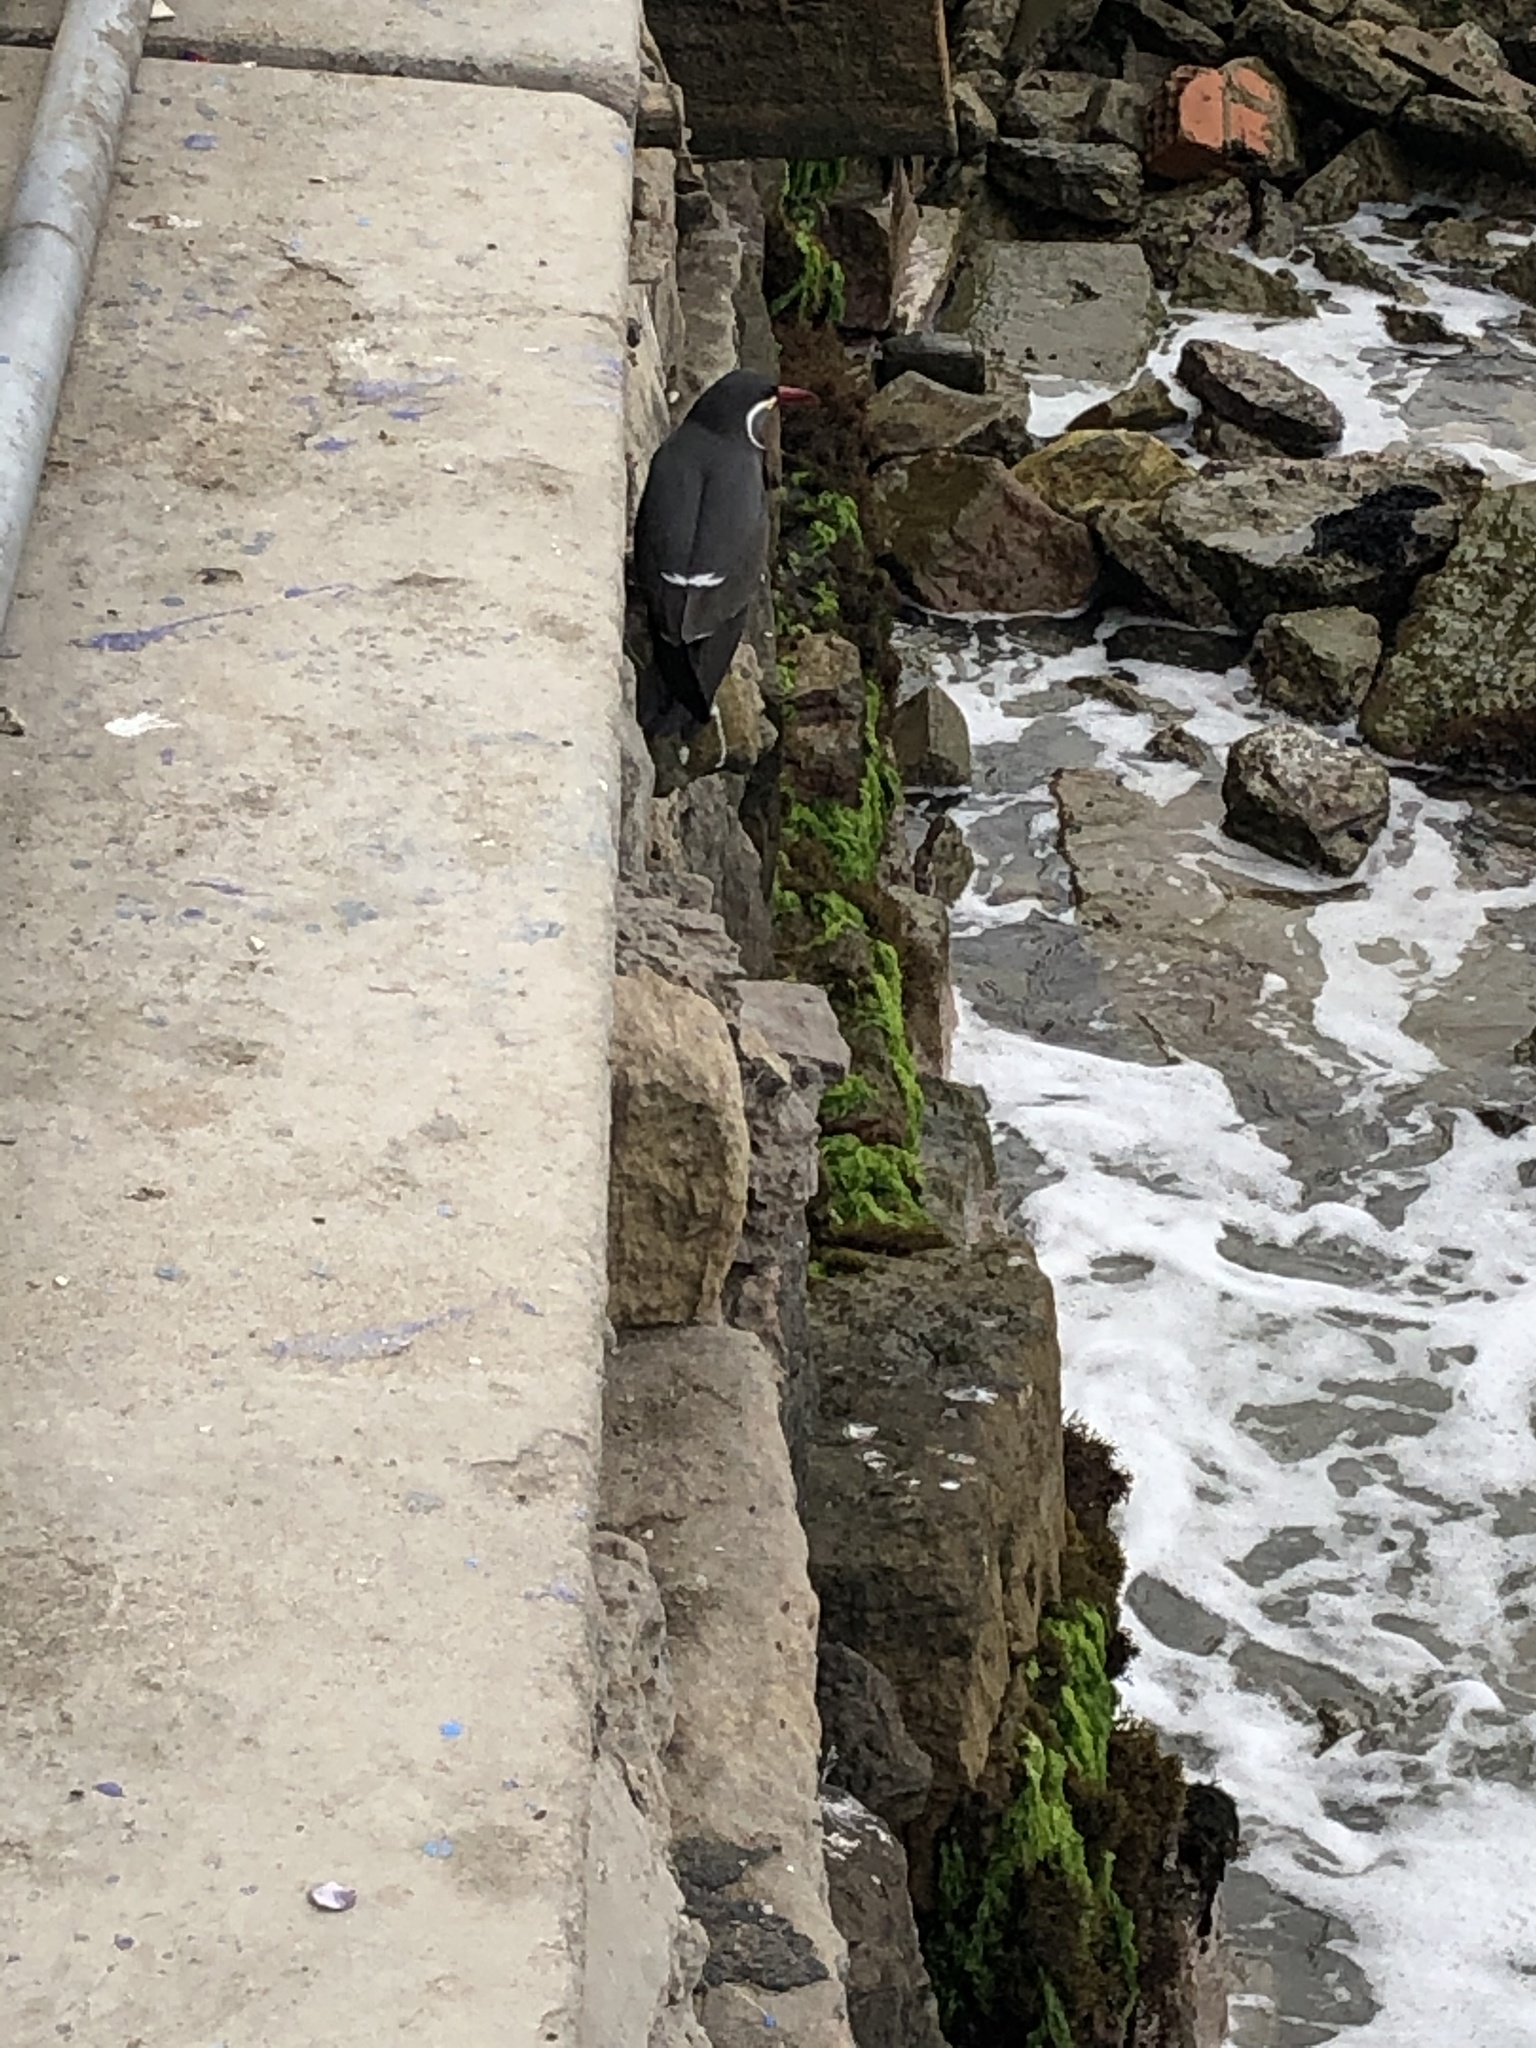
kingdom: Animalia
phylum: Chordata
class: Aves
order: Charadriiformes
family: Laridae
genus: Larosterna
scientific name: Larosterna inca
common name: Inca tern
